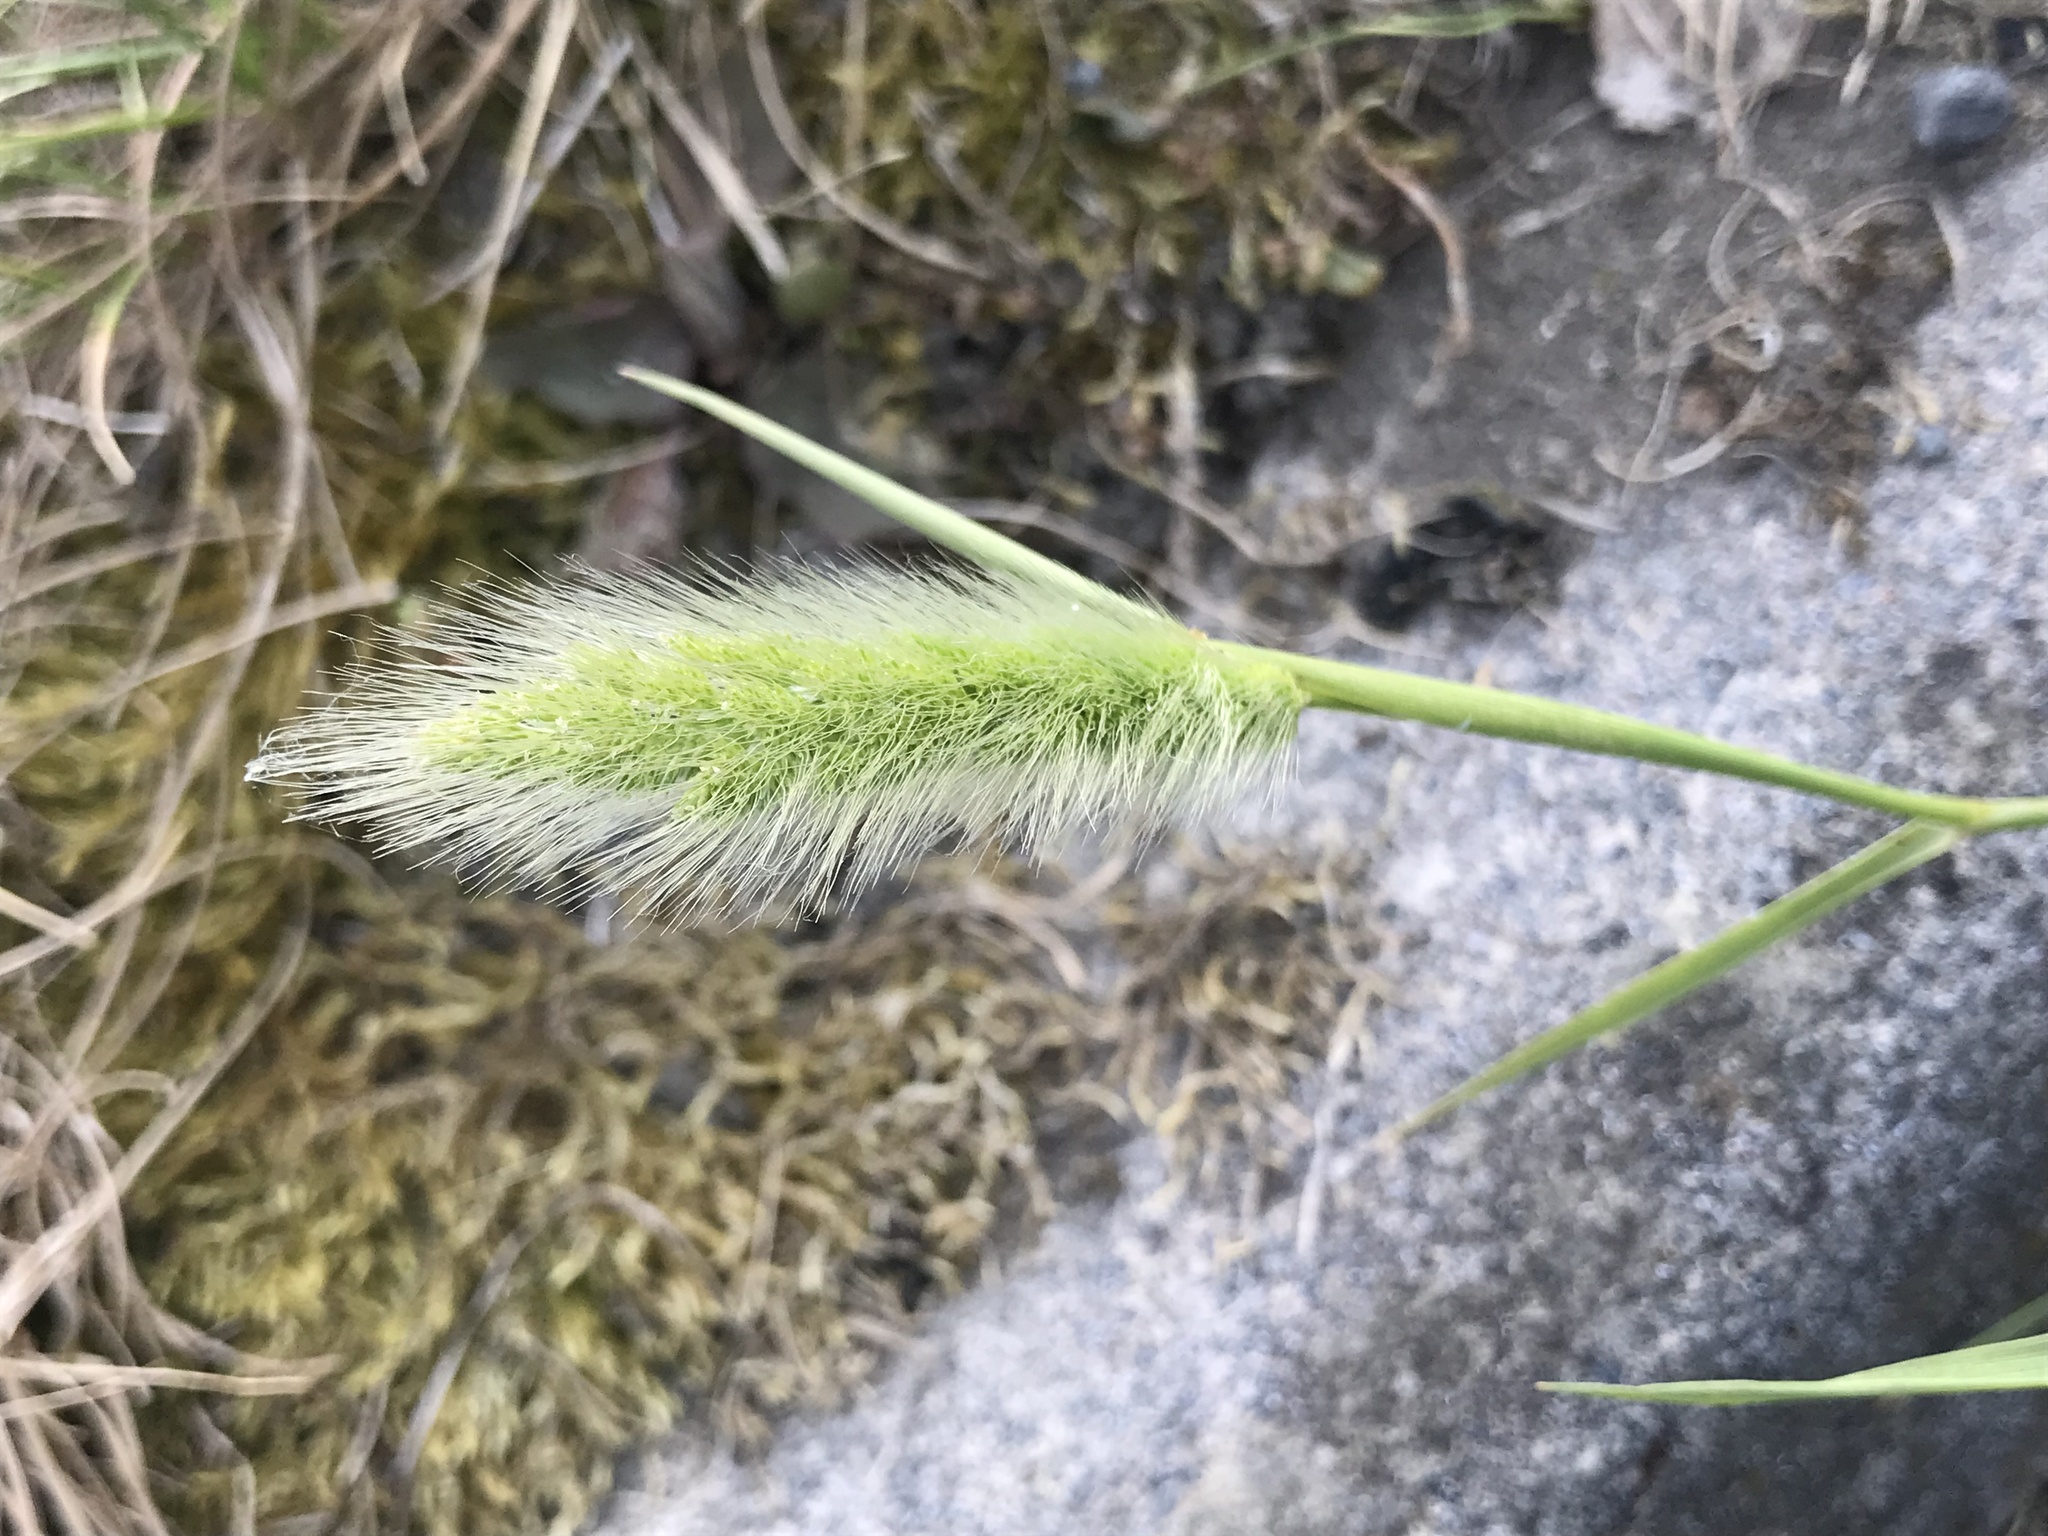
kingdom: Plantae
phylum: Tracheophyta
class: Liliopsida
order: Poales
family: Poaceae
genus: Polypogon
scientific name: Polypogon monspeliensis
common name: Annual rabbitsfoot grass
